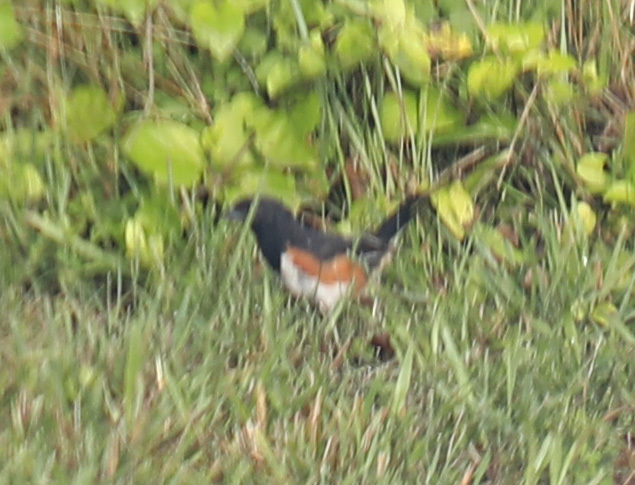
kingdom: Animalia
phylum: Chordata
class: Aves
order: Passeriformes
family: Passerellidae
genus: Pipilo
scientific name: Pipilo erythrophthalmus
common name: Eastern towhee
